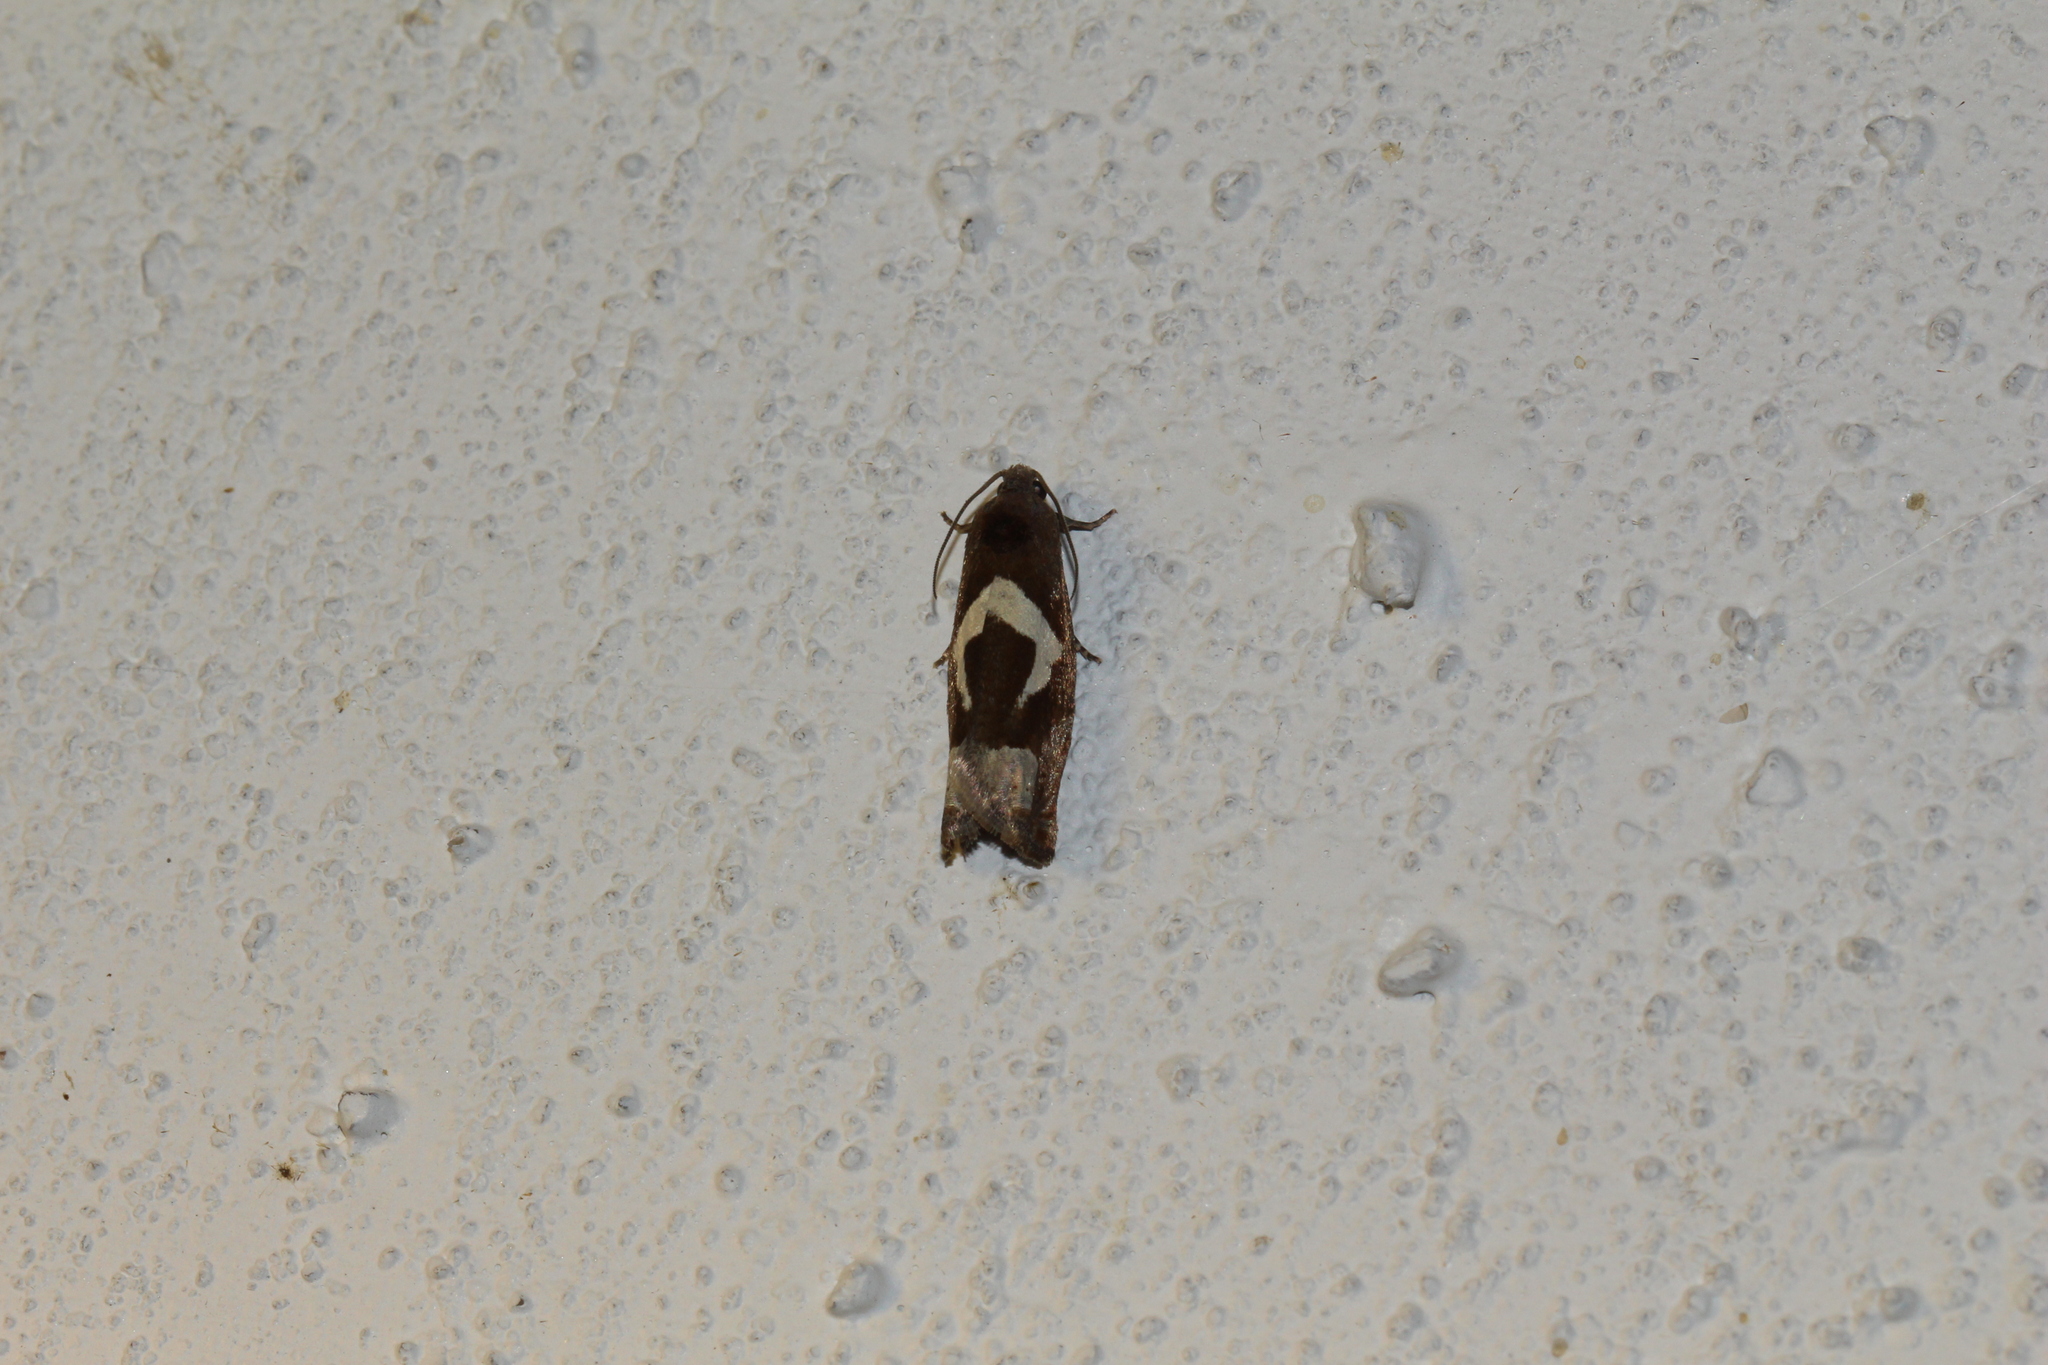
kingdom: Animalia
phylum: Arthropoda
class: Insecta
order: Lepidoptera
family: Tortricidae
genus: Epiblema
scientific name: Epiblema foenella
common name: White-foot bell
